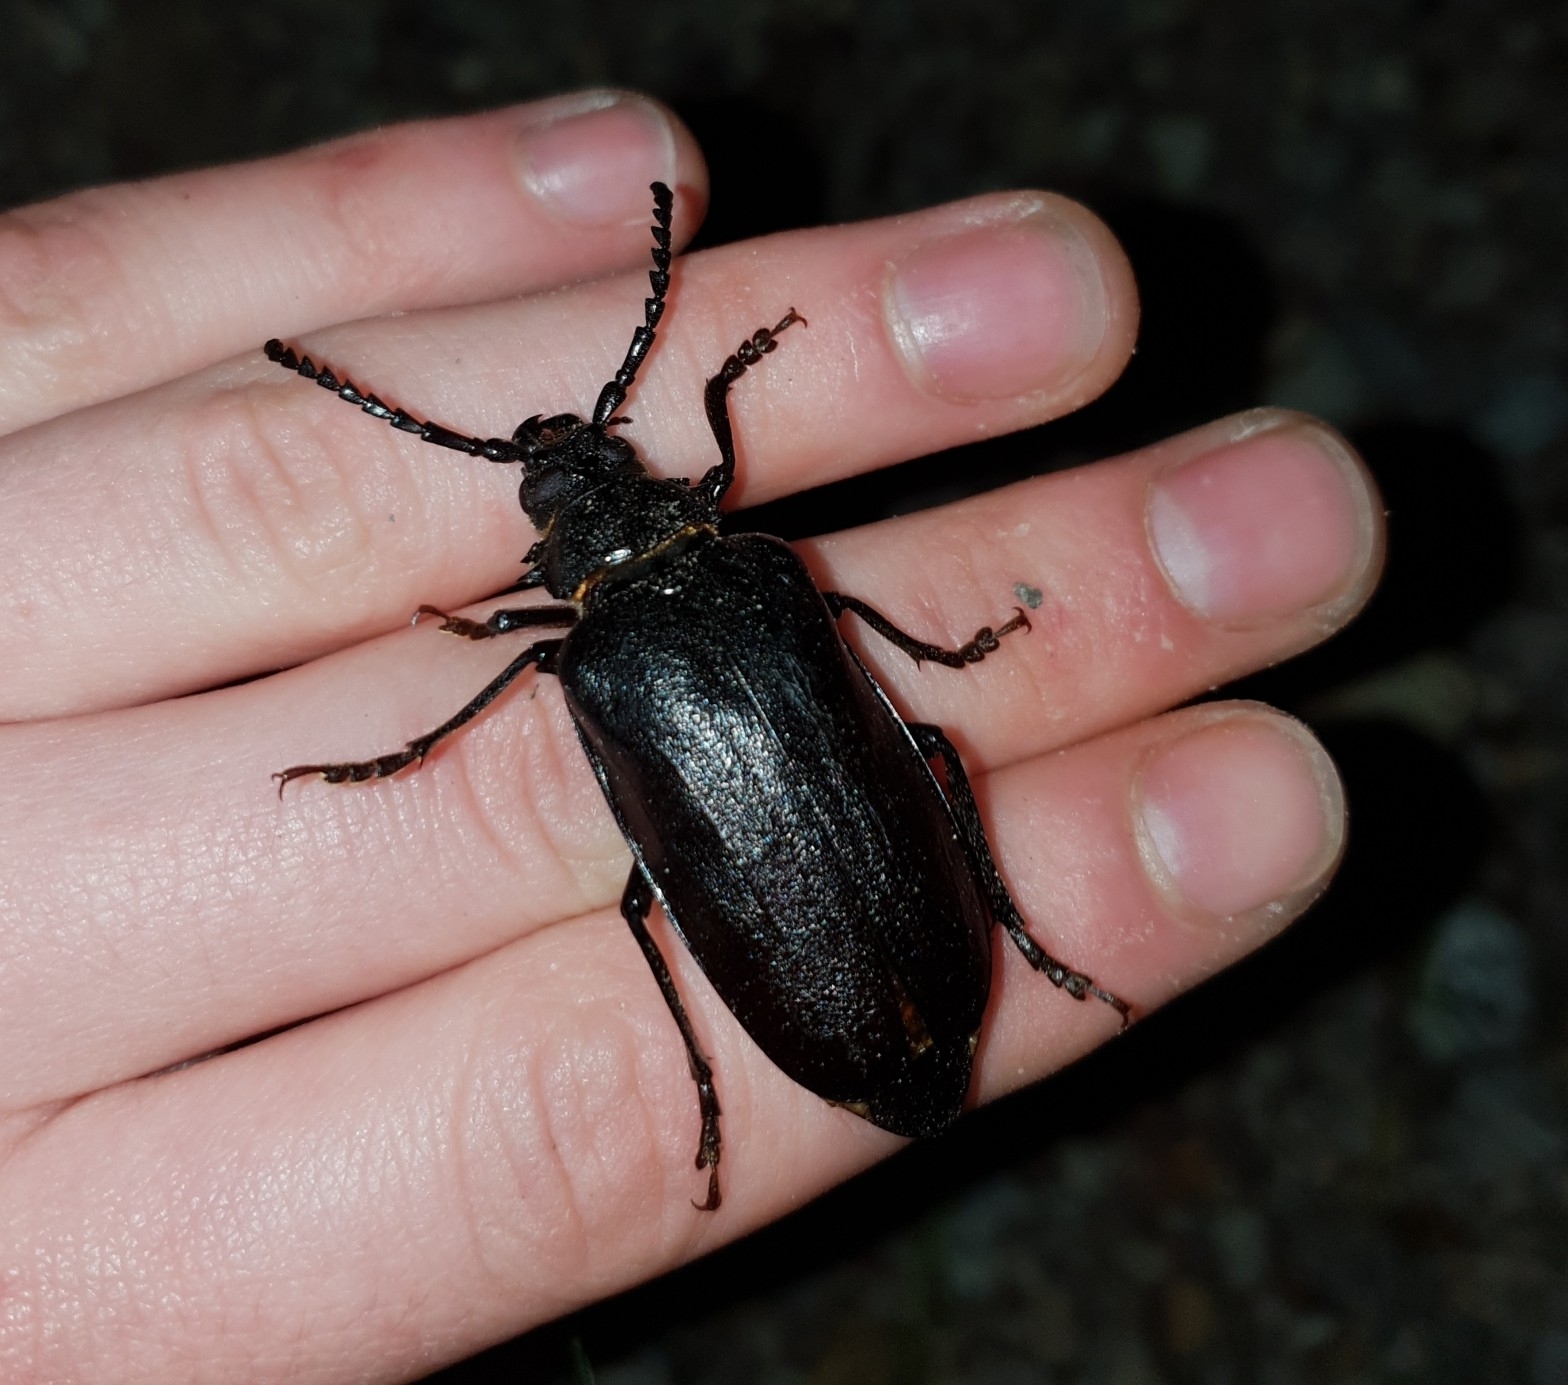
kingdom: Animalia
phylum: Arthropoda
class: Insecta
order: Coleoptera
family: Cerambycidae
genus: Prionus
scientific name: Prionus coriarius
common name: Tanner beetle
